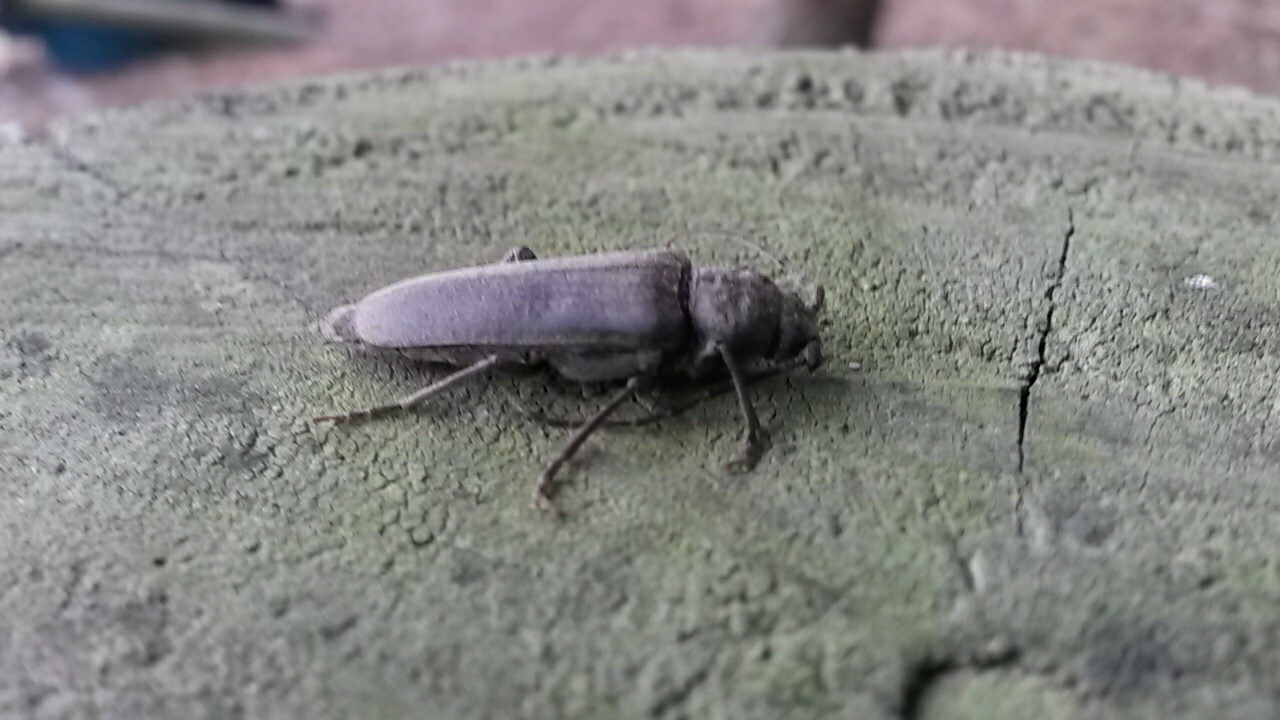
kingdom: Animalia
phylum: Arthropoda
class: Insecta
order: Coleoptera
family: Cerambycidae
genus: Arhopalus
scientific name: Arhopalus ferus
